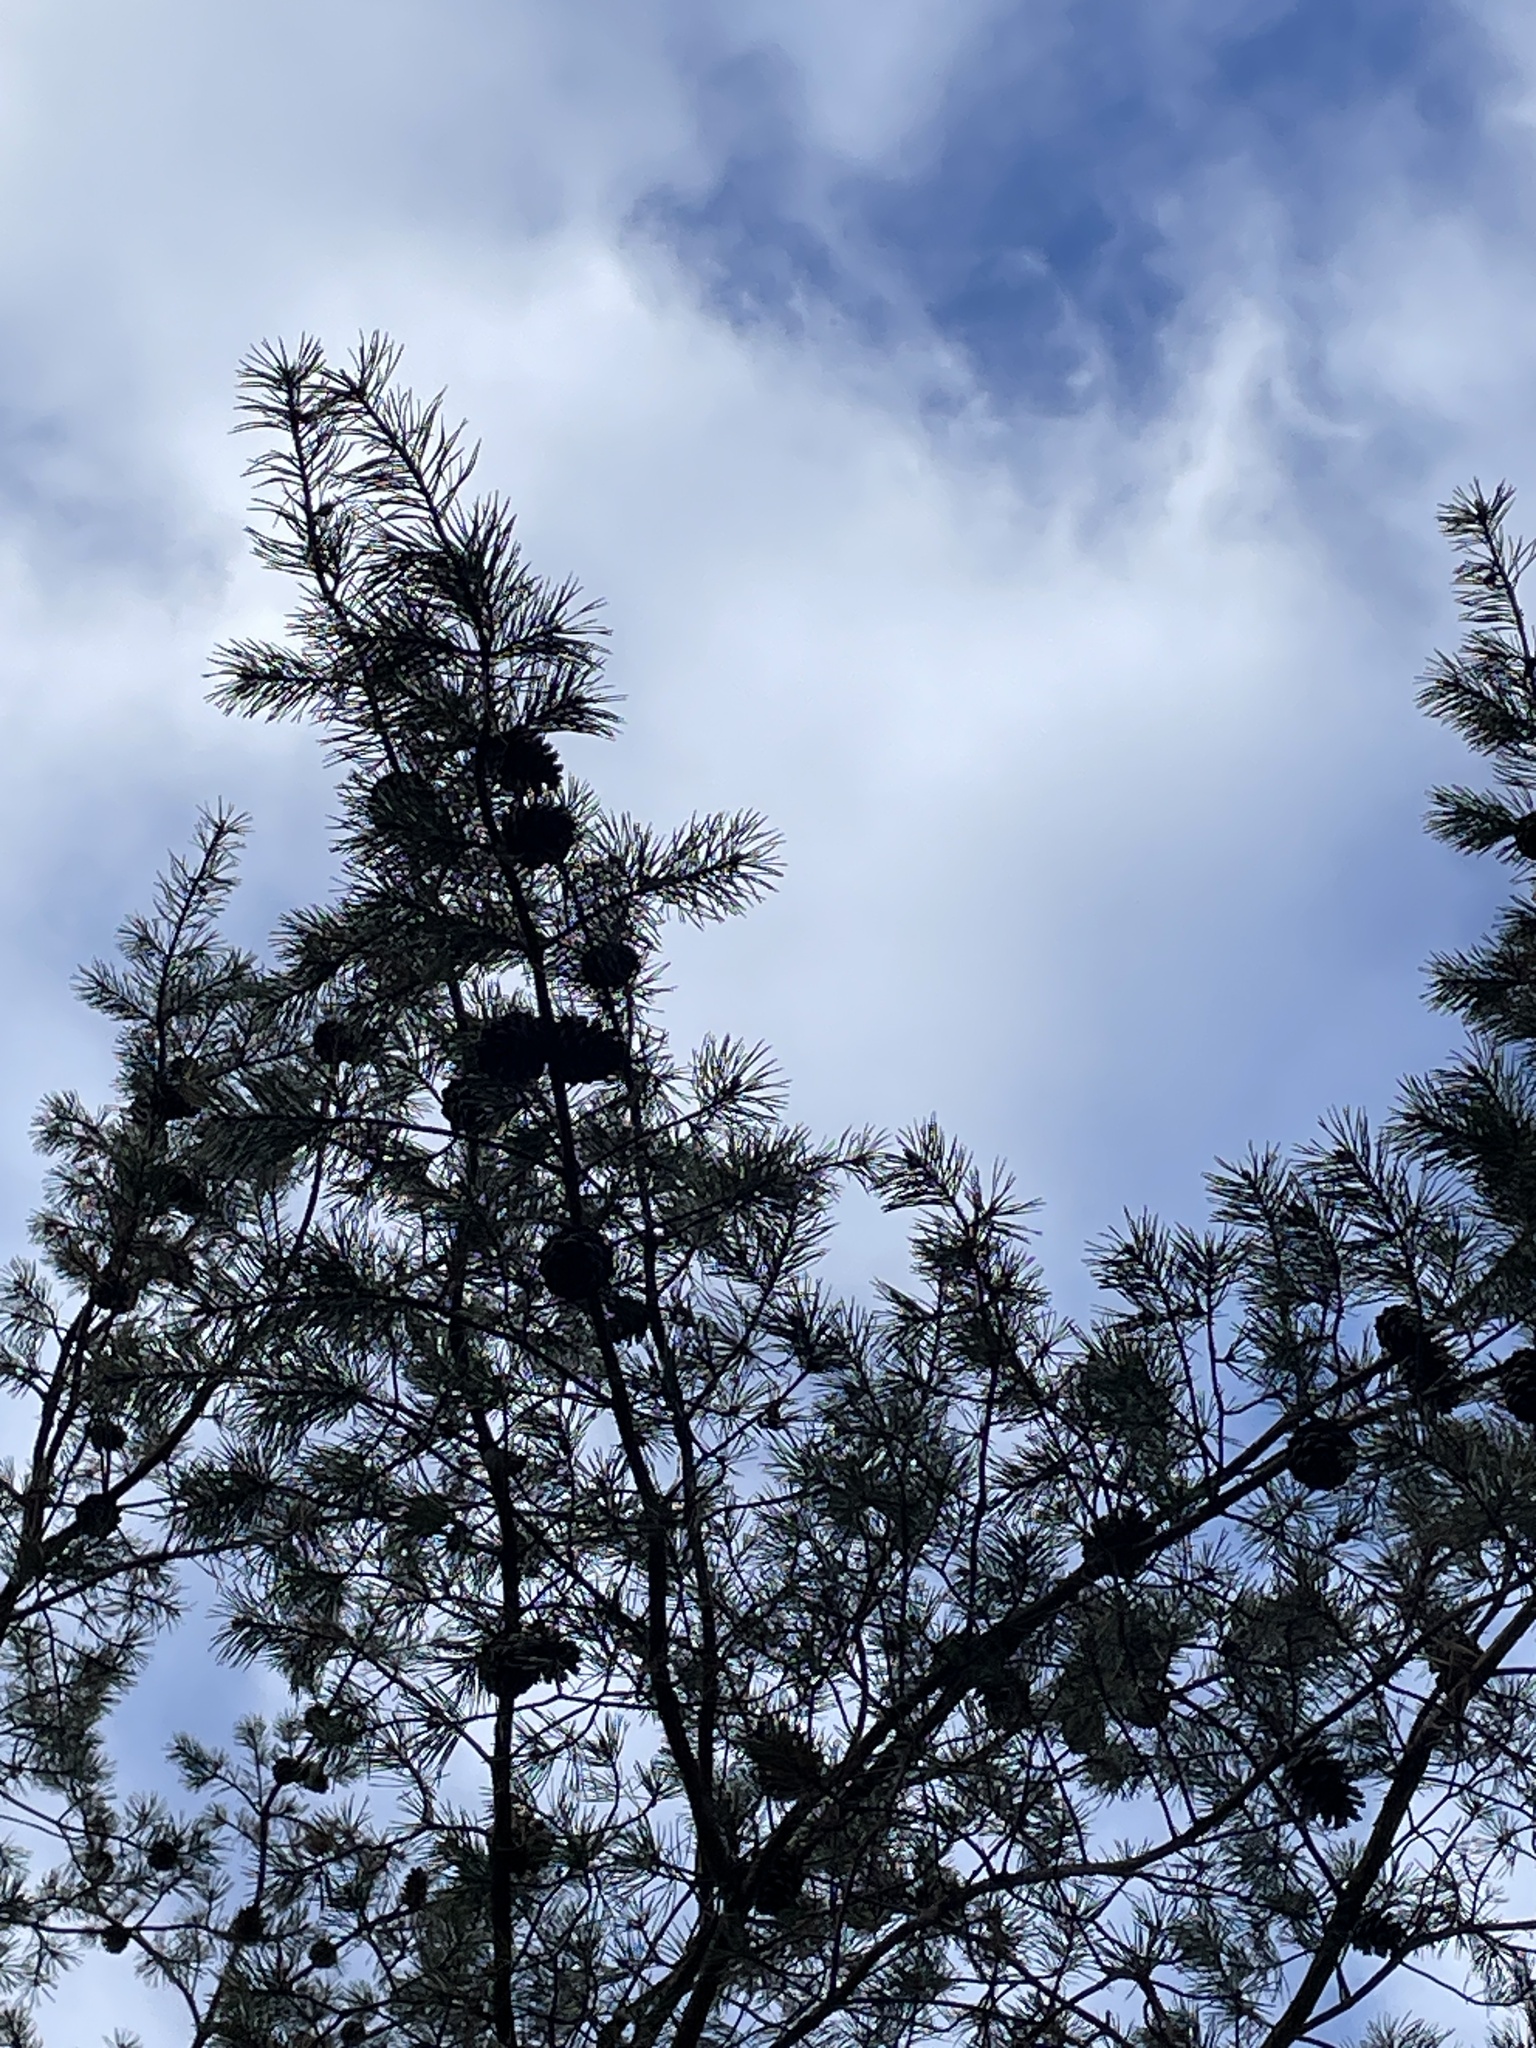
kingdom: Plantae
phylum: Tracheophyta
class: Pinopsida
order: Pinales
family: Pinaceae
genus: Pinus
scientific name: Pinus virginiana
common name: Scrub pine
